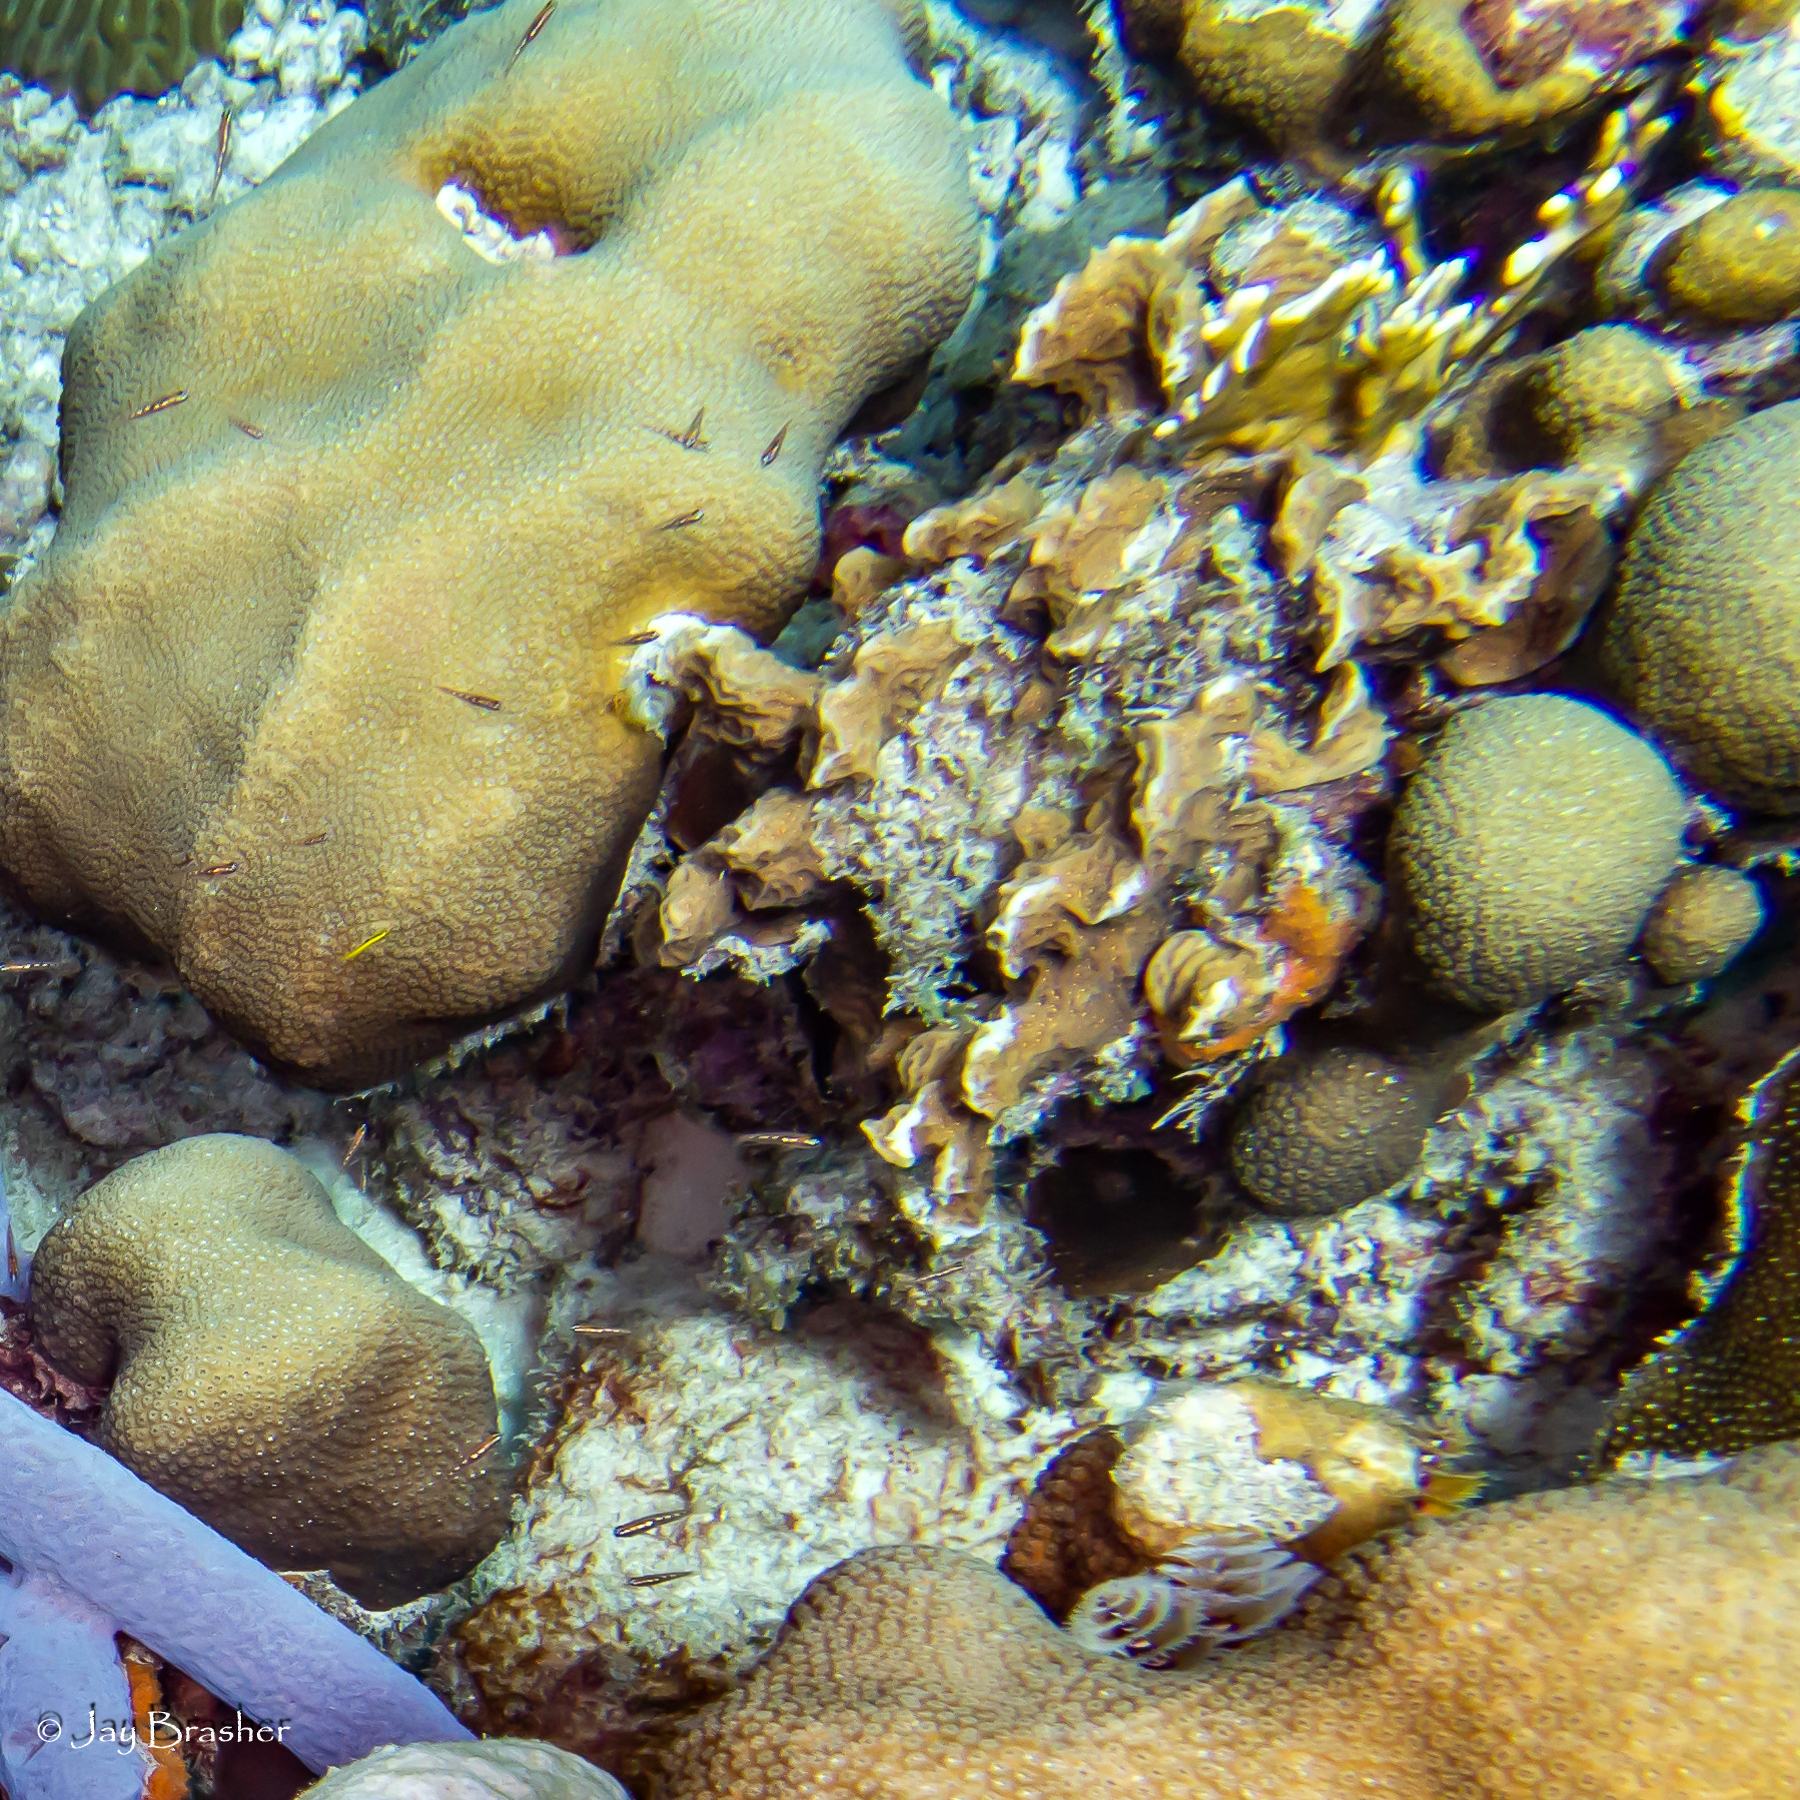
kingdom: Animalia
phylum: Cnidaria
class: Anthozoa
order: Scleractinia
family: Agariciidae
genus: Agaricia
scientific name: Agaricia agaricites
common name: Lettuce coral
